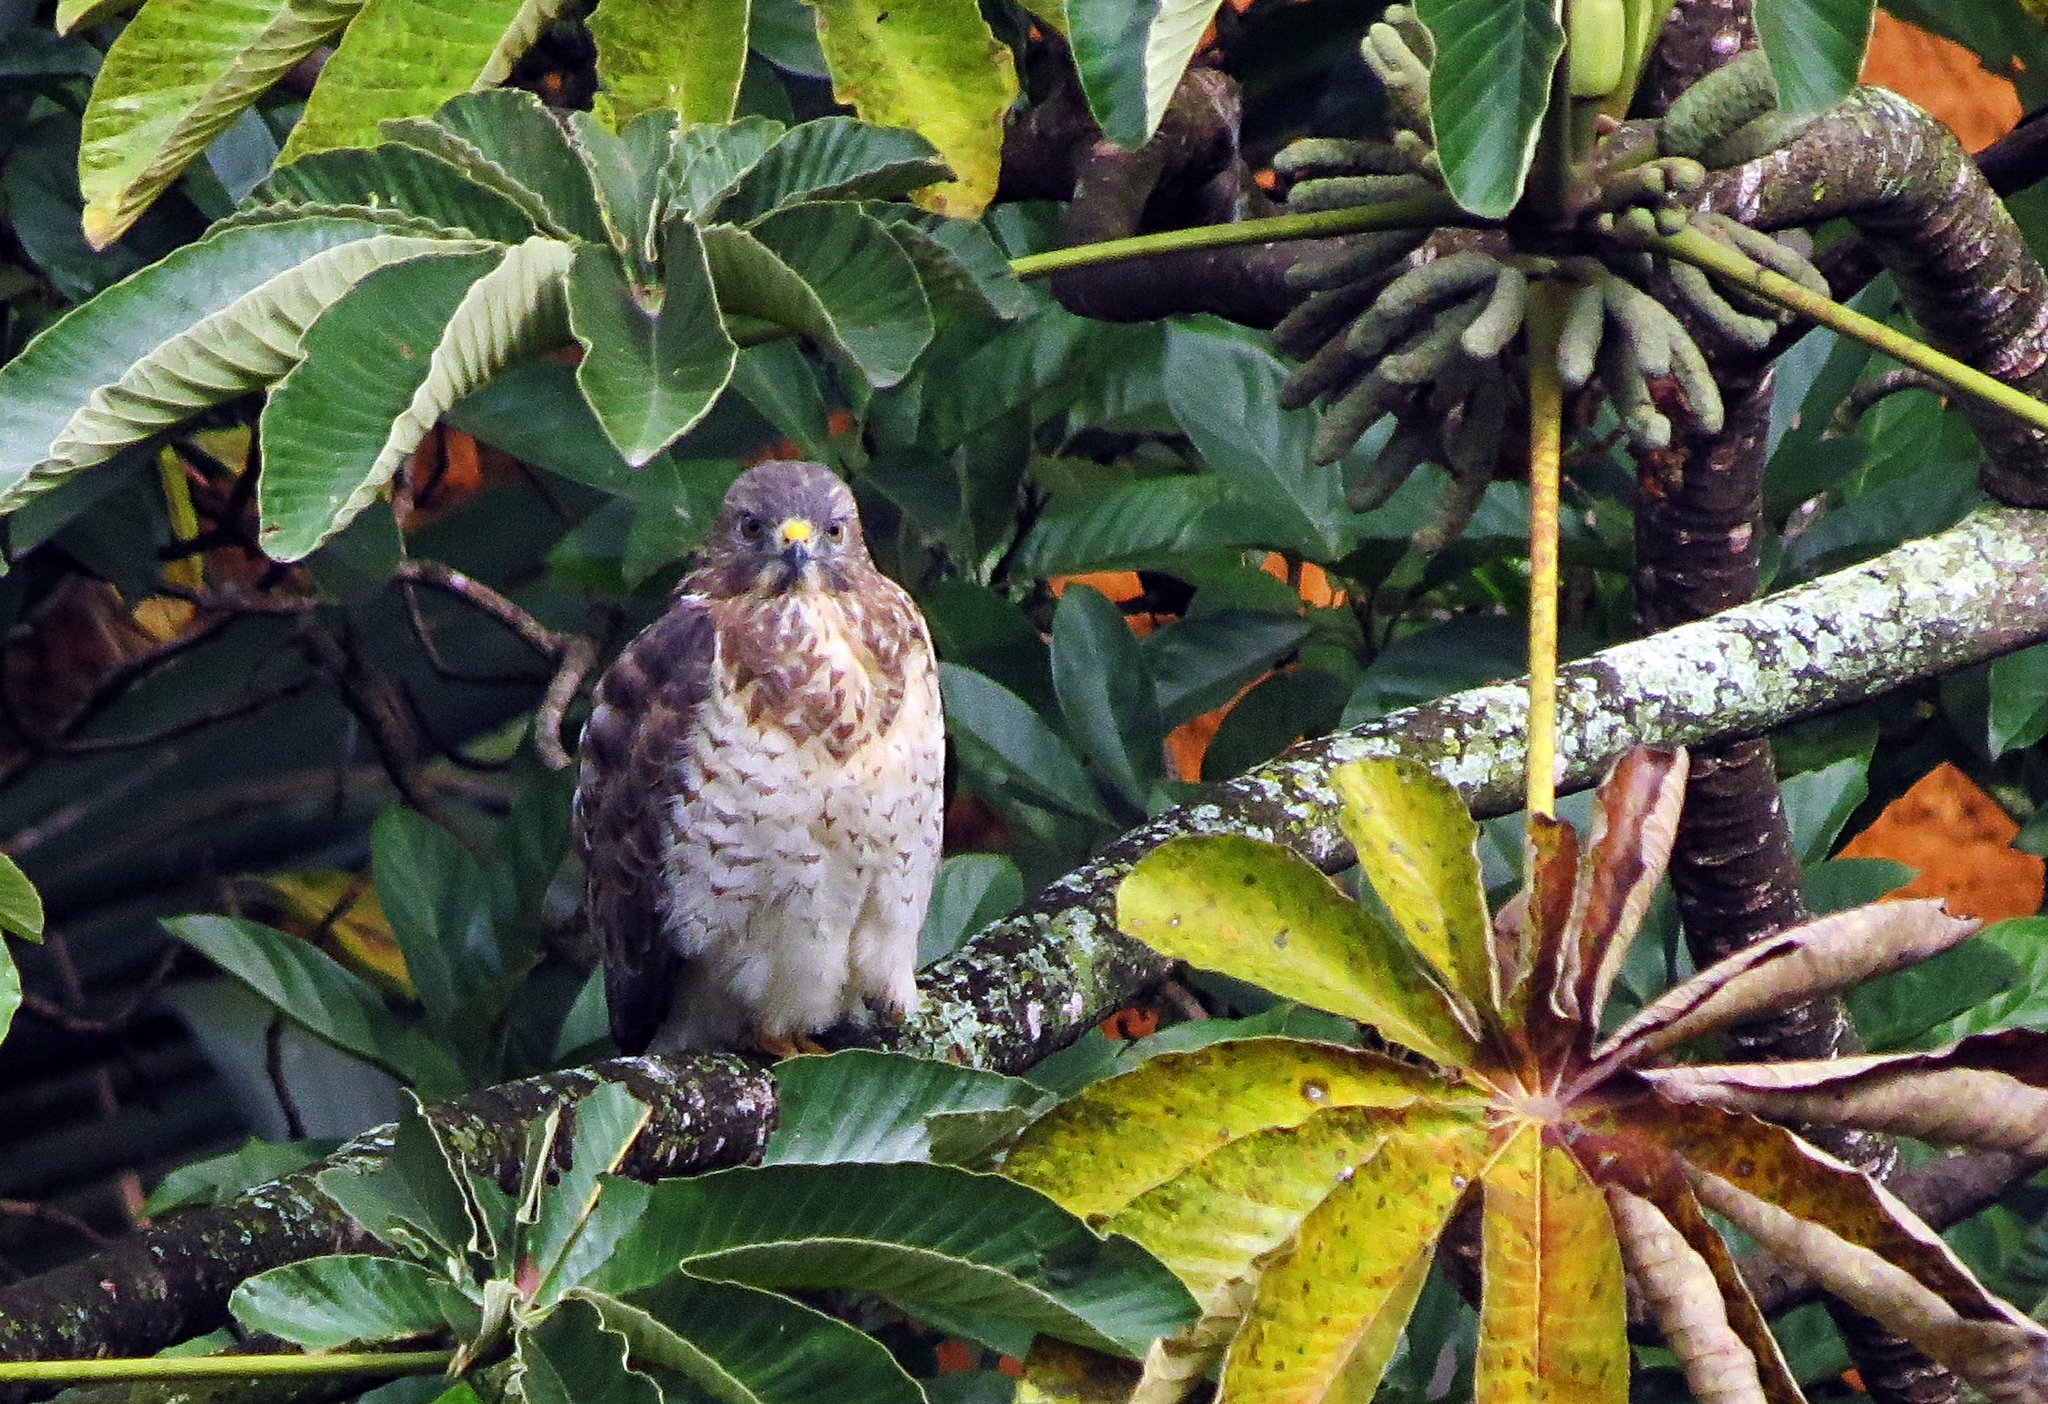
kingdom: Animalia
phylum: Chordata
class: Aves
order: Accipitriformes
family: Accipitridae
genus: Buteo
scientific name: Buteo platypterus
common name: Broad-winged hawk
